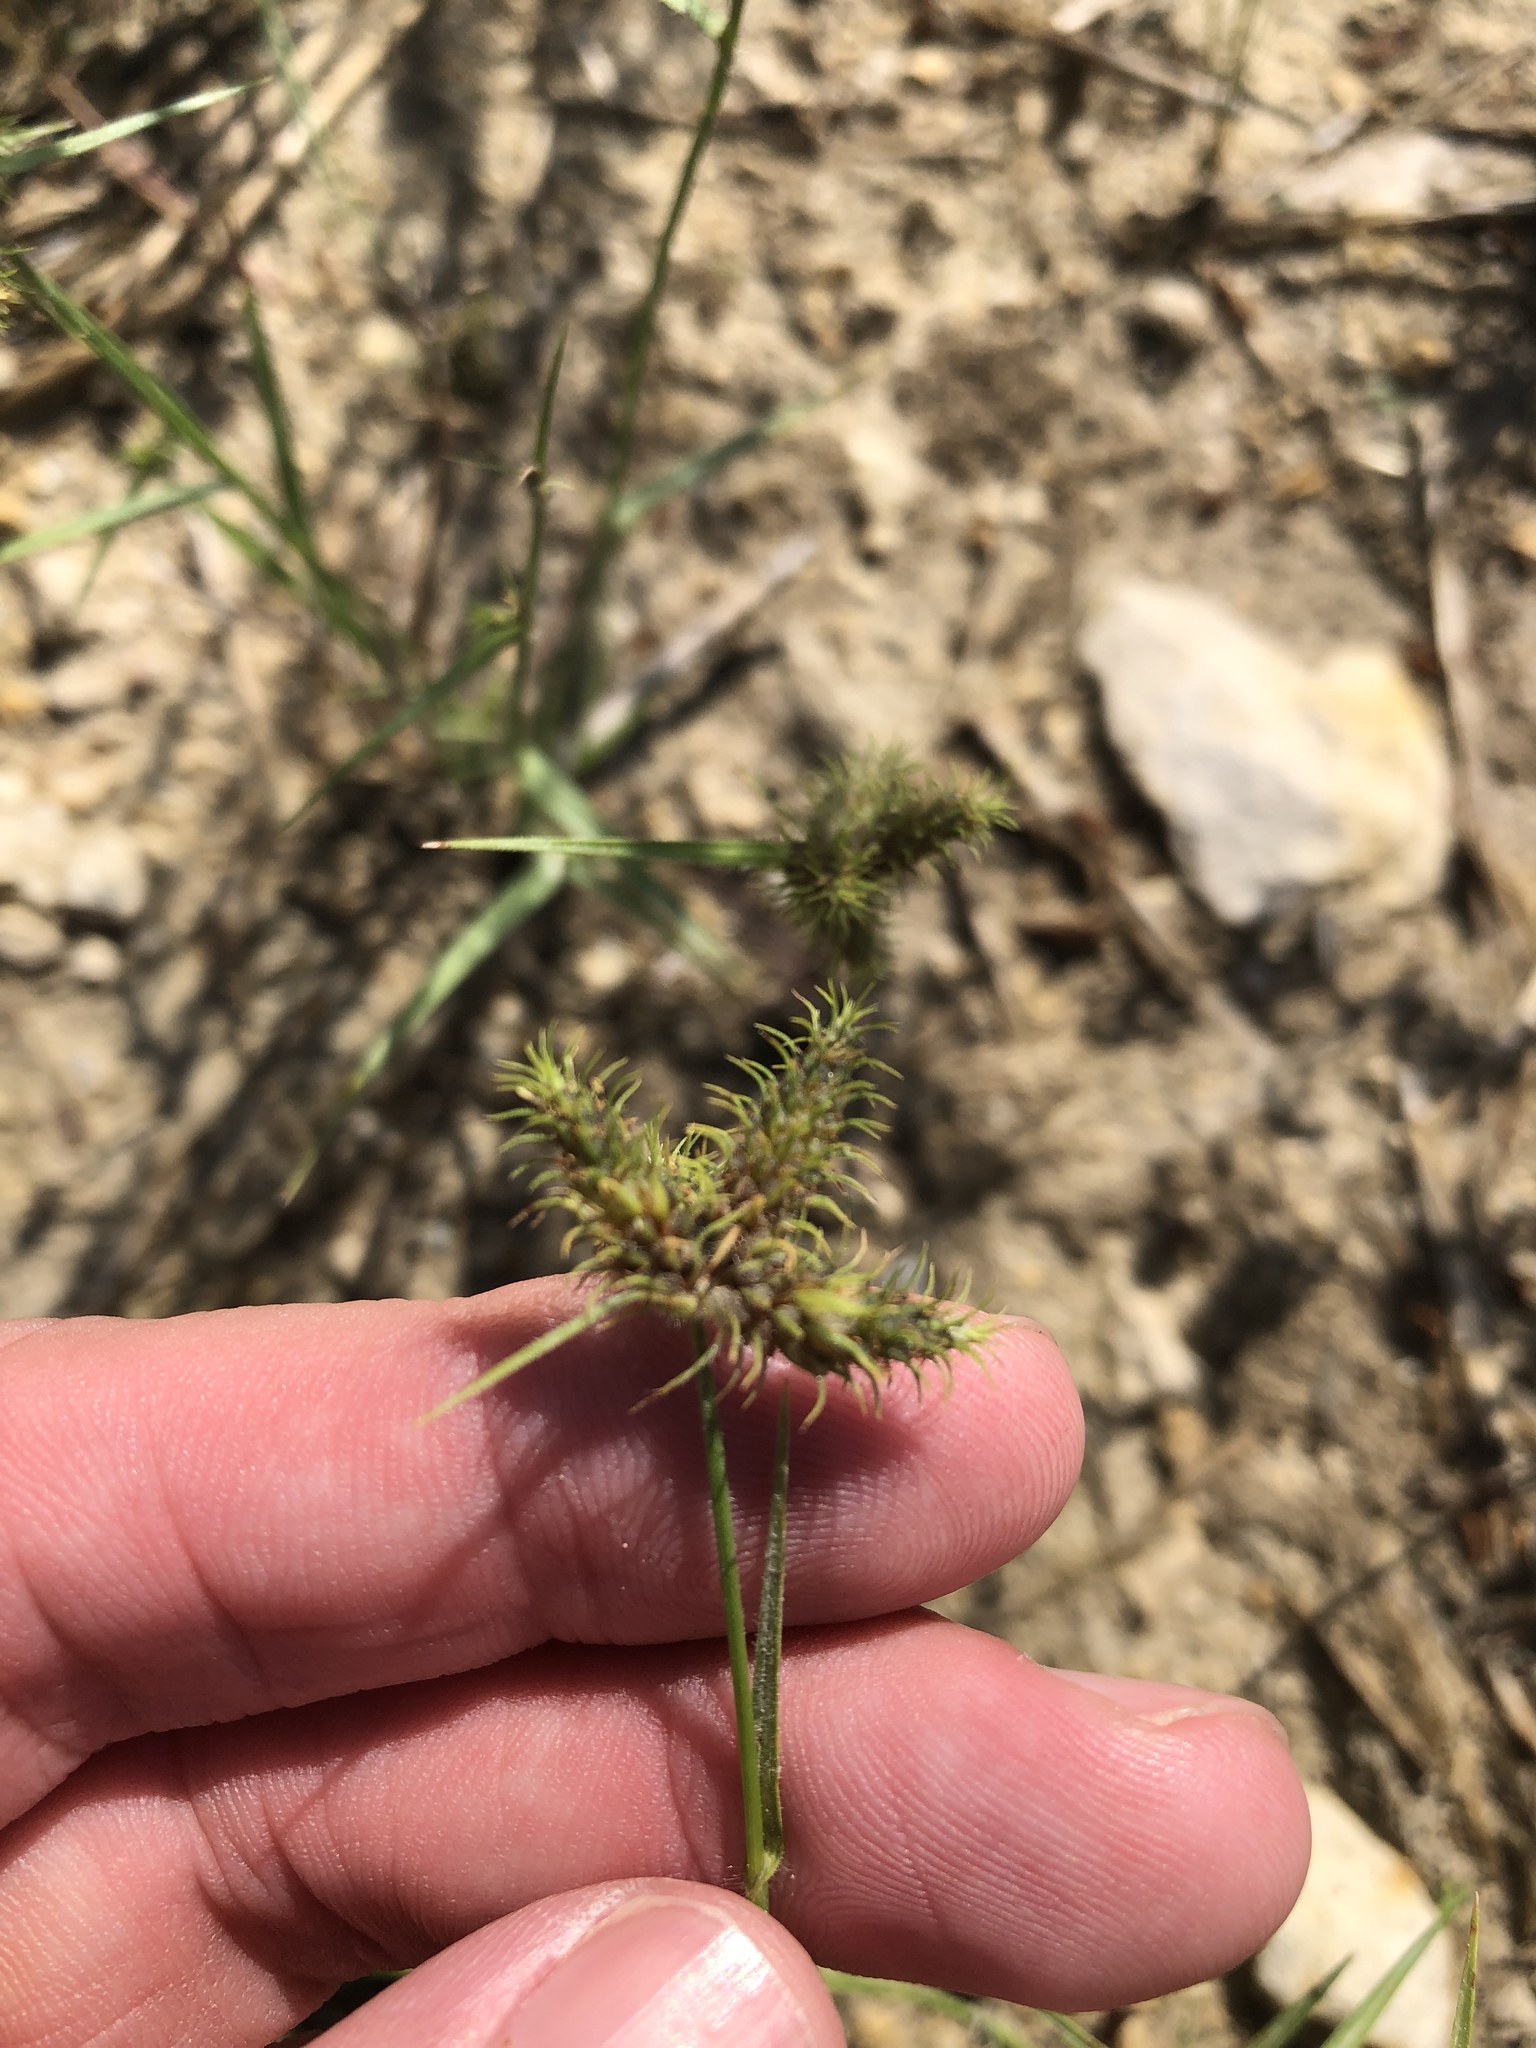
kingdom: Plantae
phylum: Tracheophyta
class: Liliopsida
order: Poales
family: Cyperaceae
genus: Fuirena
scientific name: Fuirena simplex
